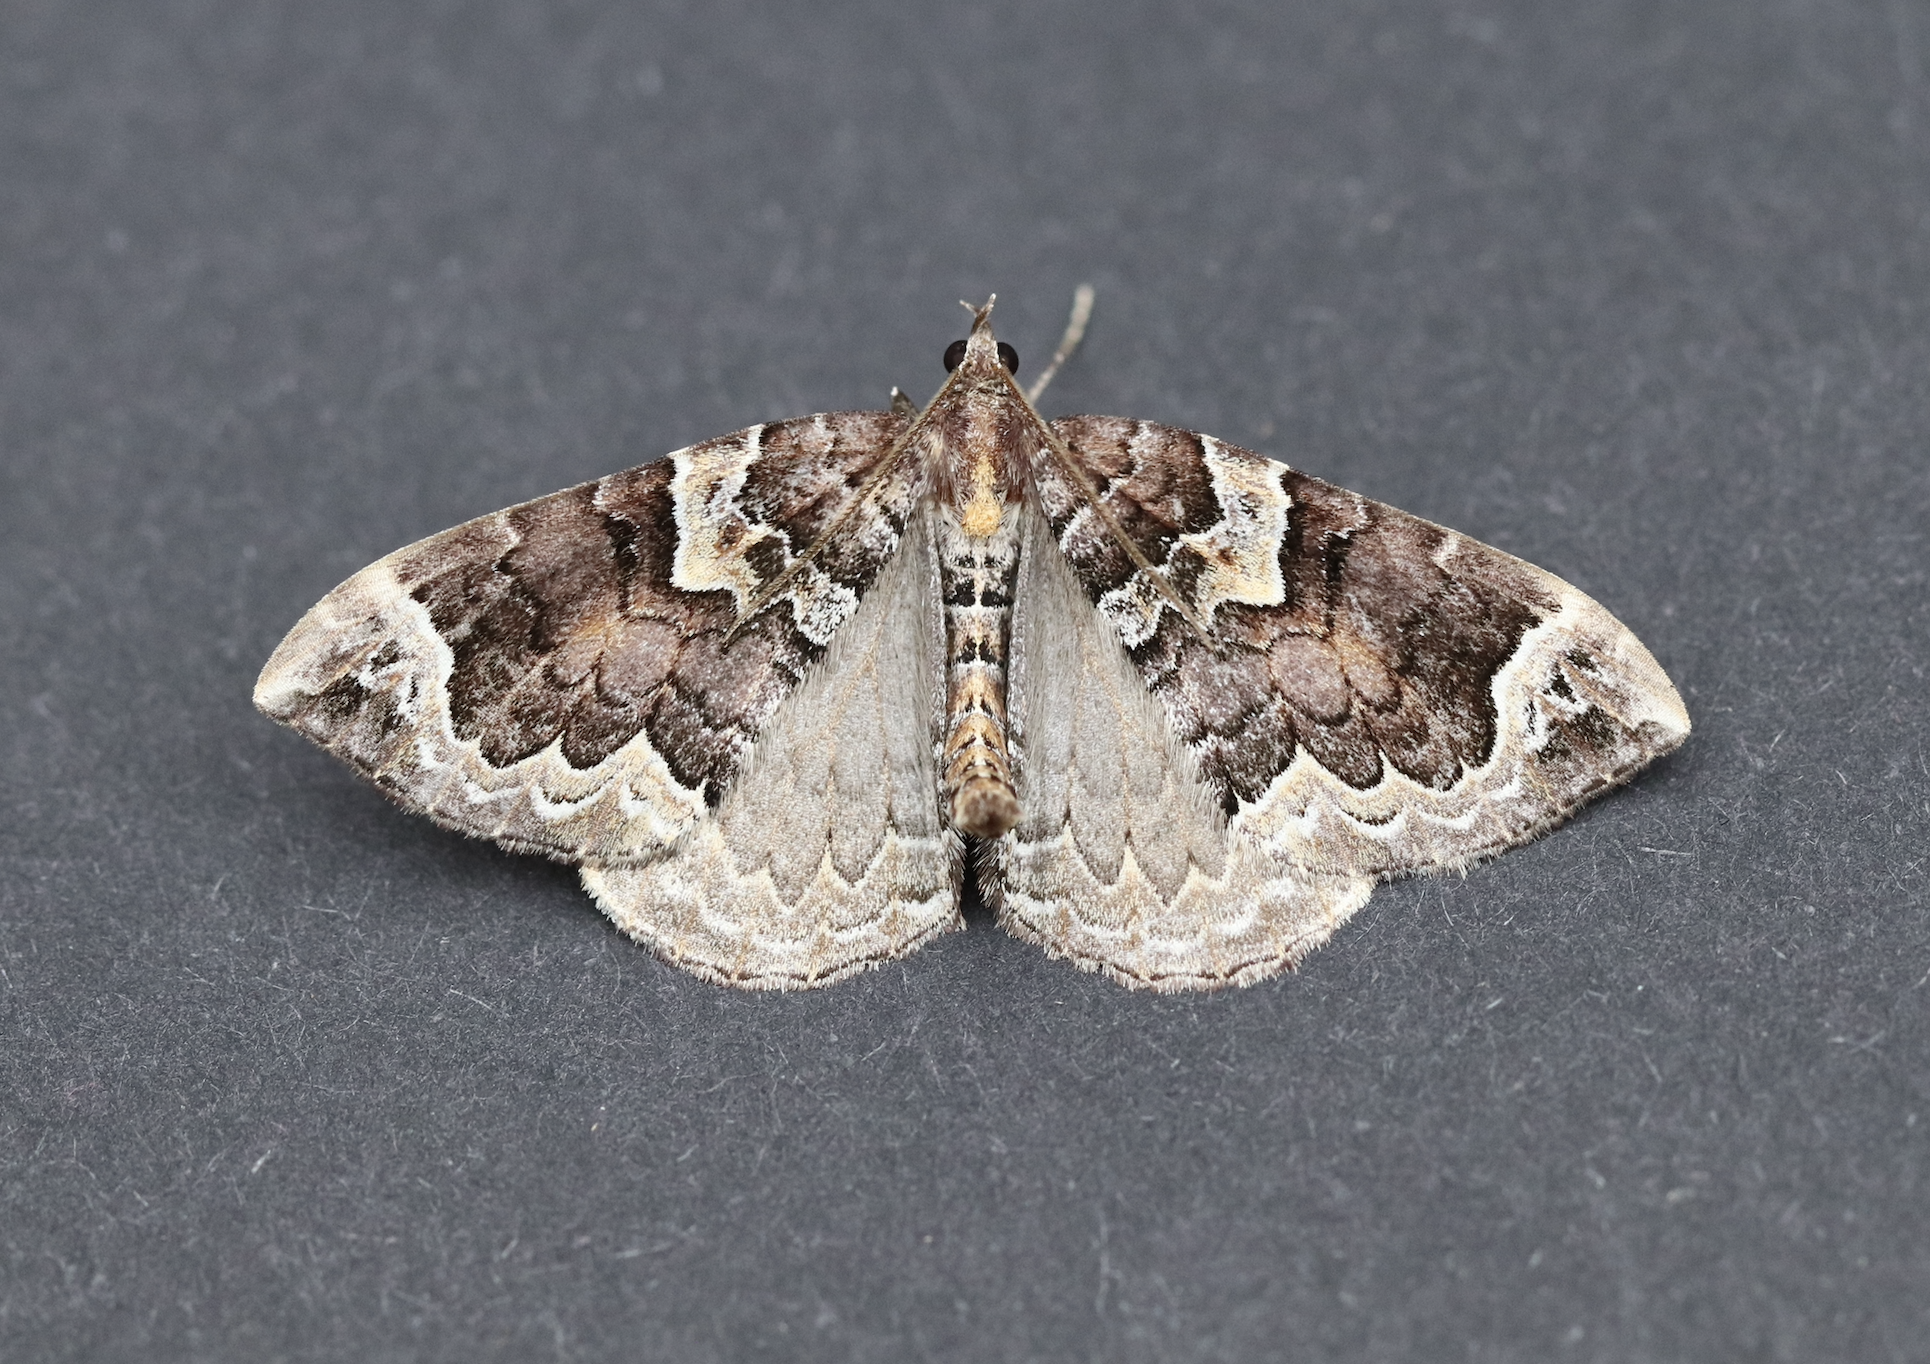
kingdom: Animalia
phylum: Arthropoda
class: Insecta
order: Lepidoptera
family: Geometridae
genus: Eulithis
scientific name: Eulithis xylina
